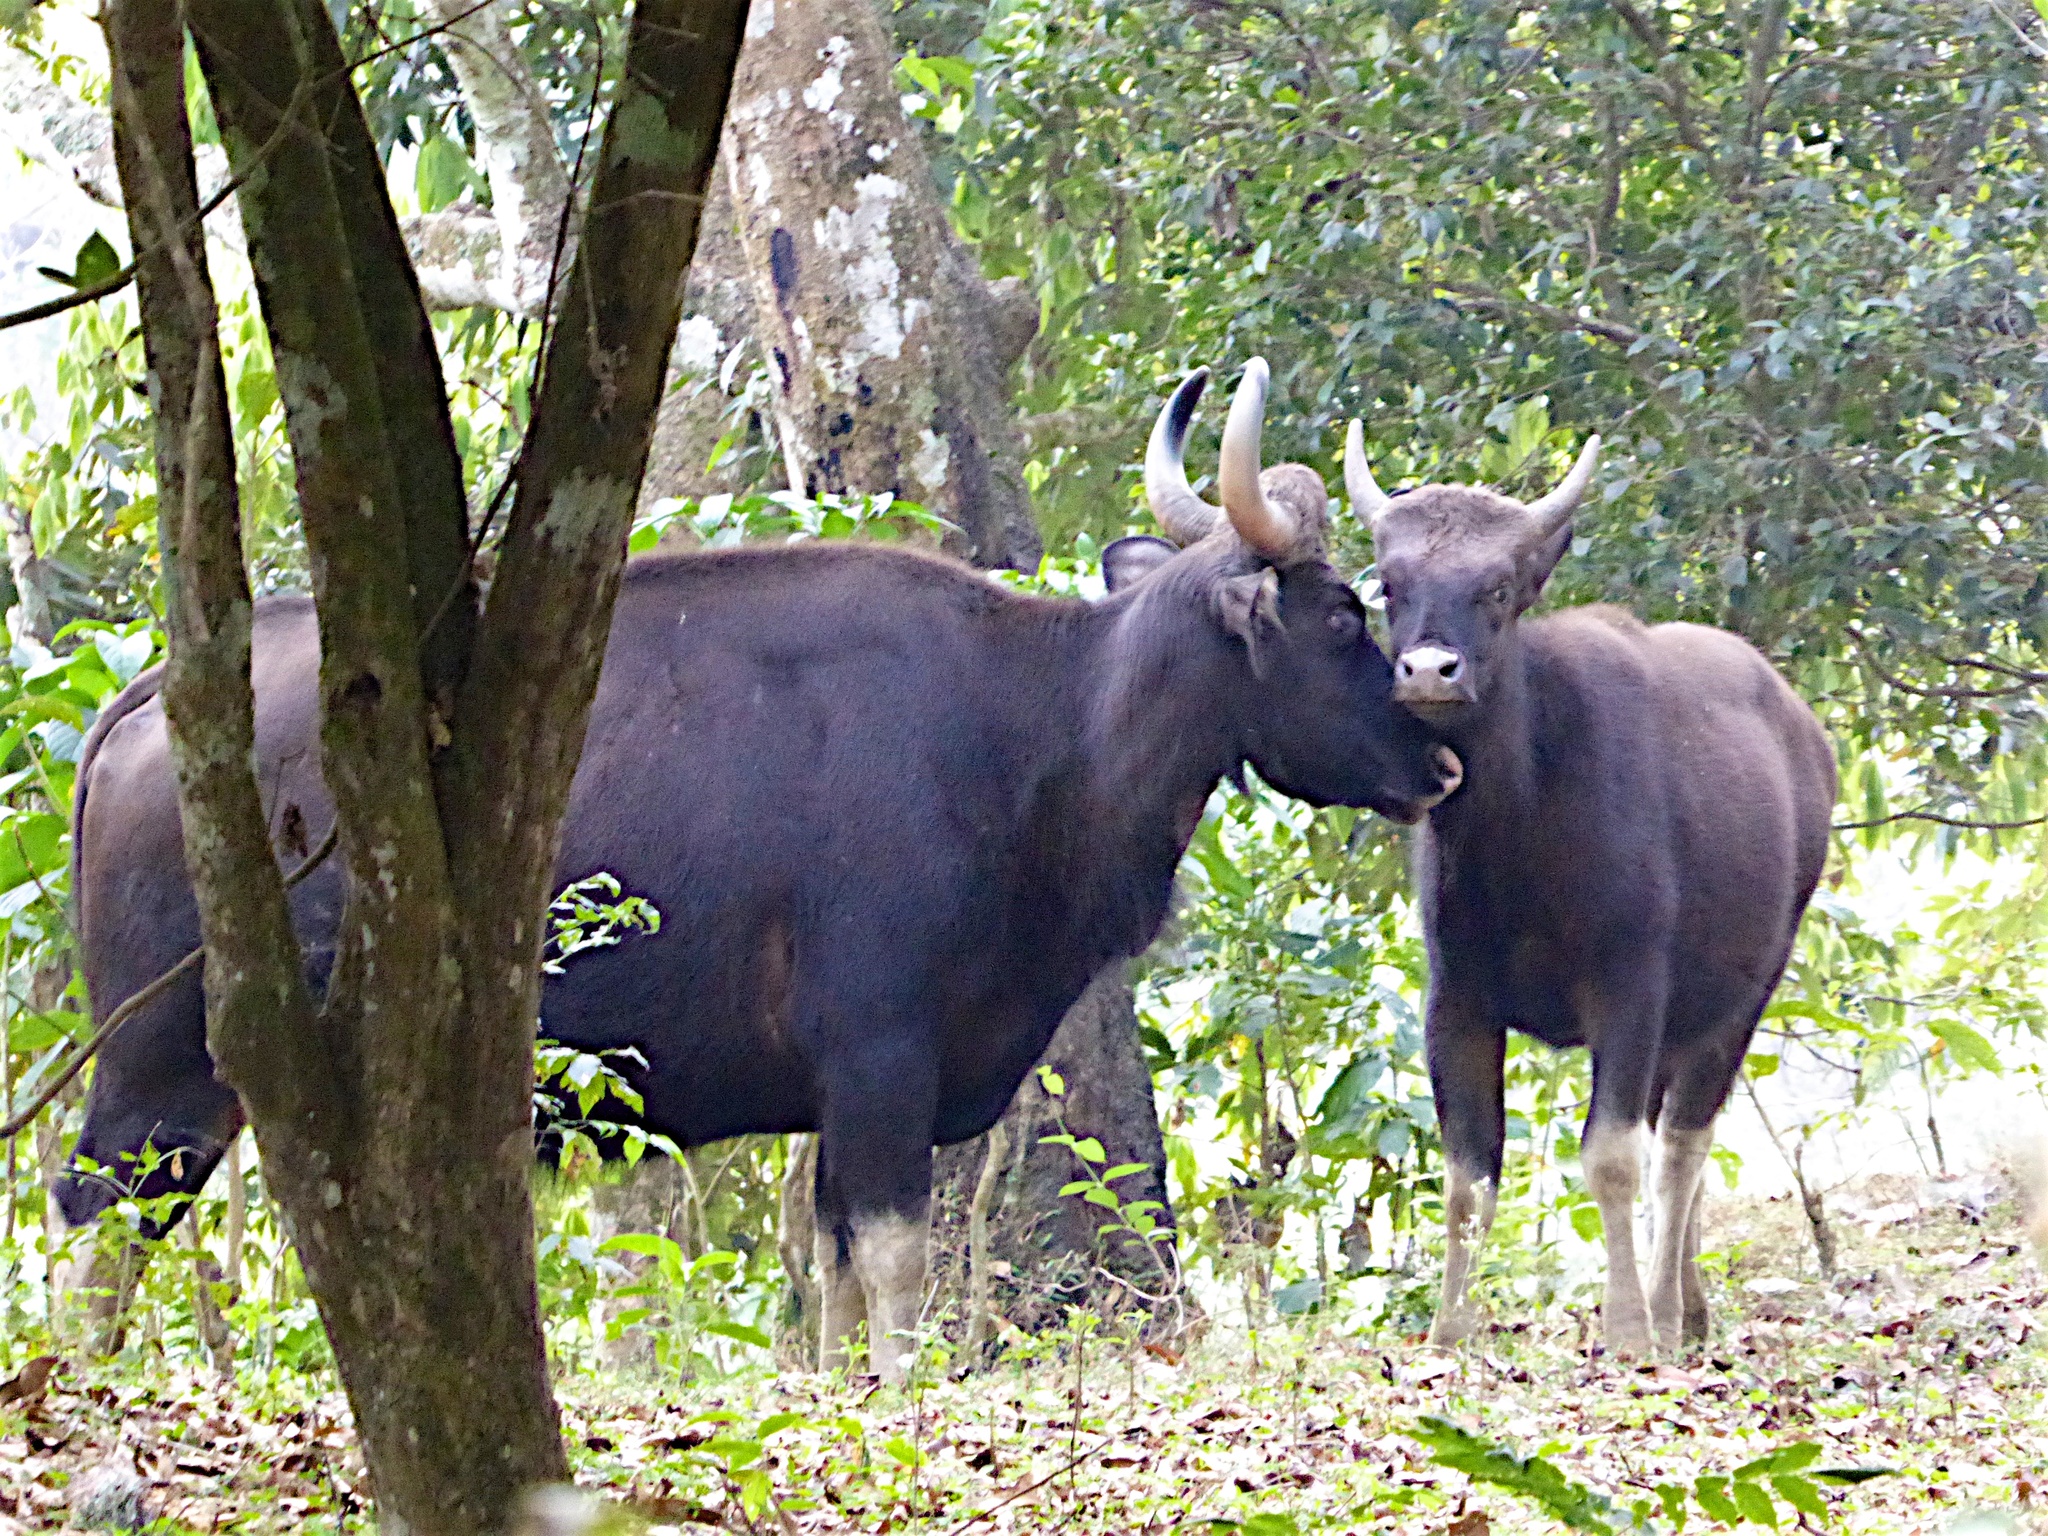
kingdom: Animalia
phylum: Chordata
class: Mammalia
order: Artiodactyla
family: Bovidae
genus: Bos
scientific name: Bos frontalis
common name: Gaur
